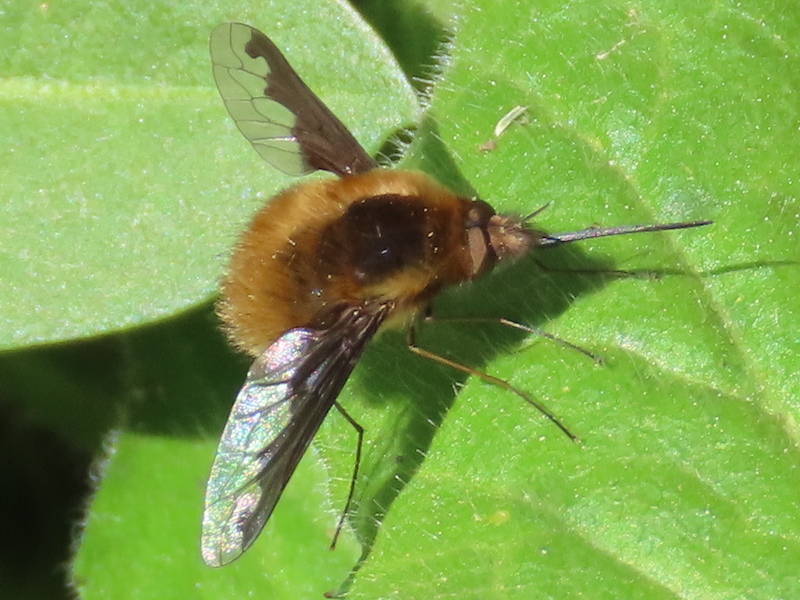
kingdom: Animalia
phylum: Arthropoda
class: Insecta
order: Diptera
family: Bombyliidae
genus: Bombylius
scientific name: Bombylius major
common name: Bee fly
